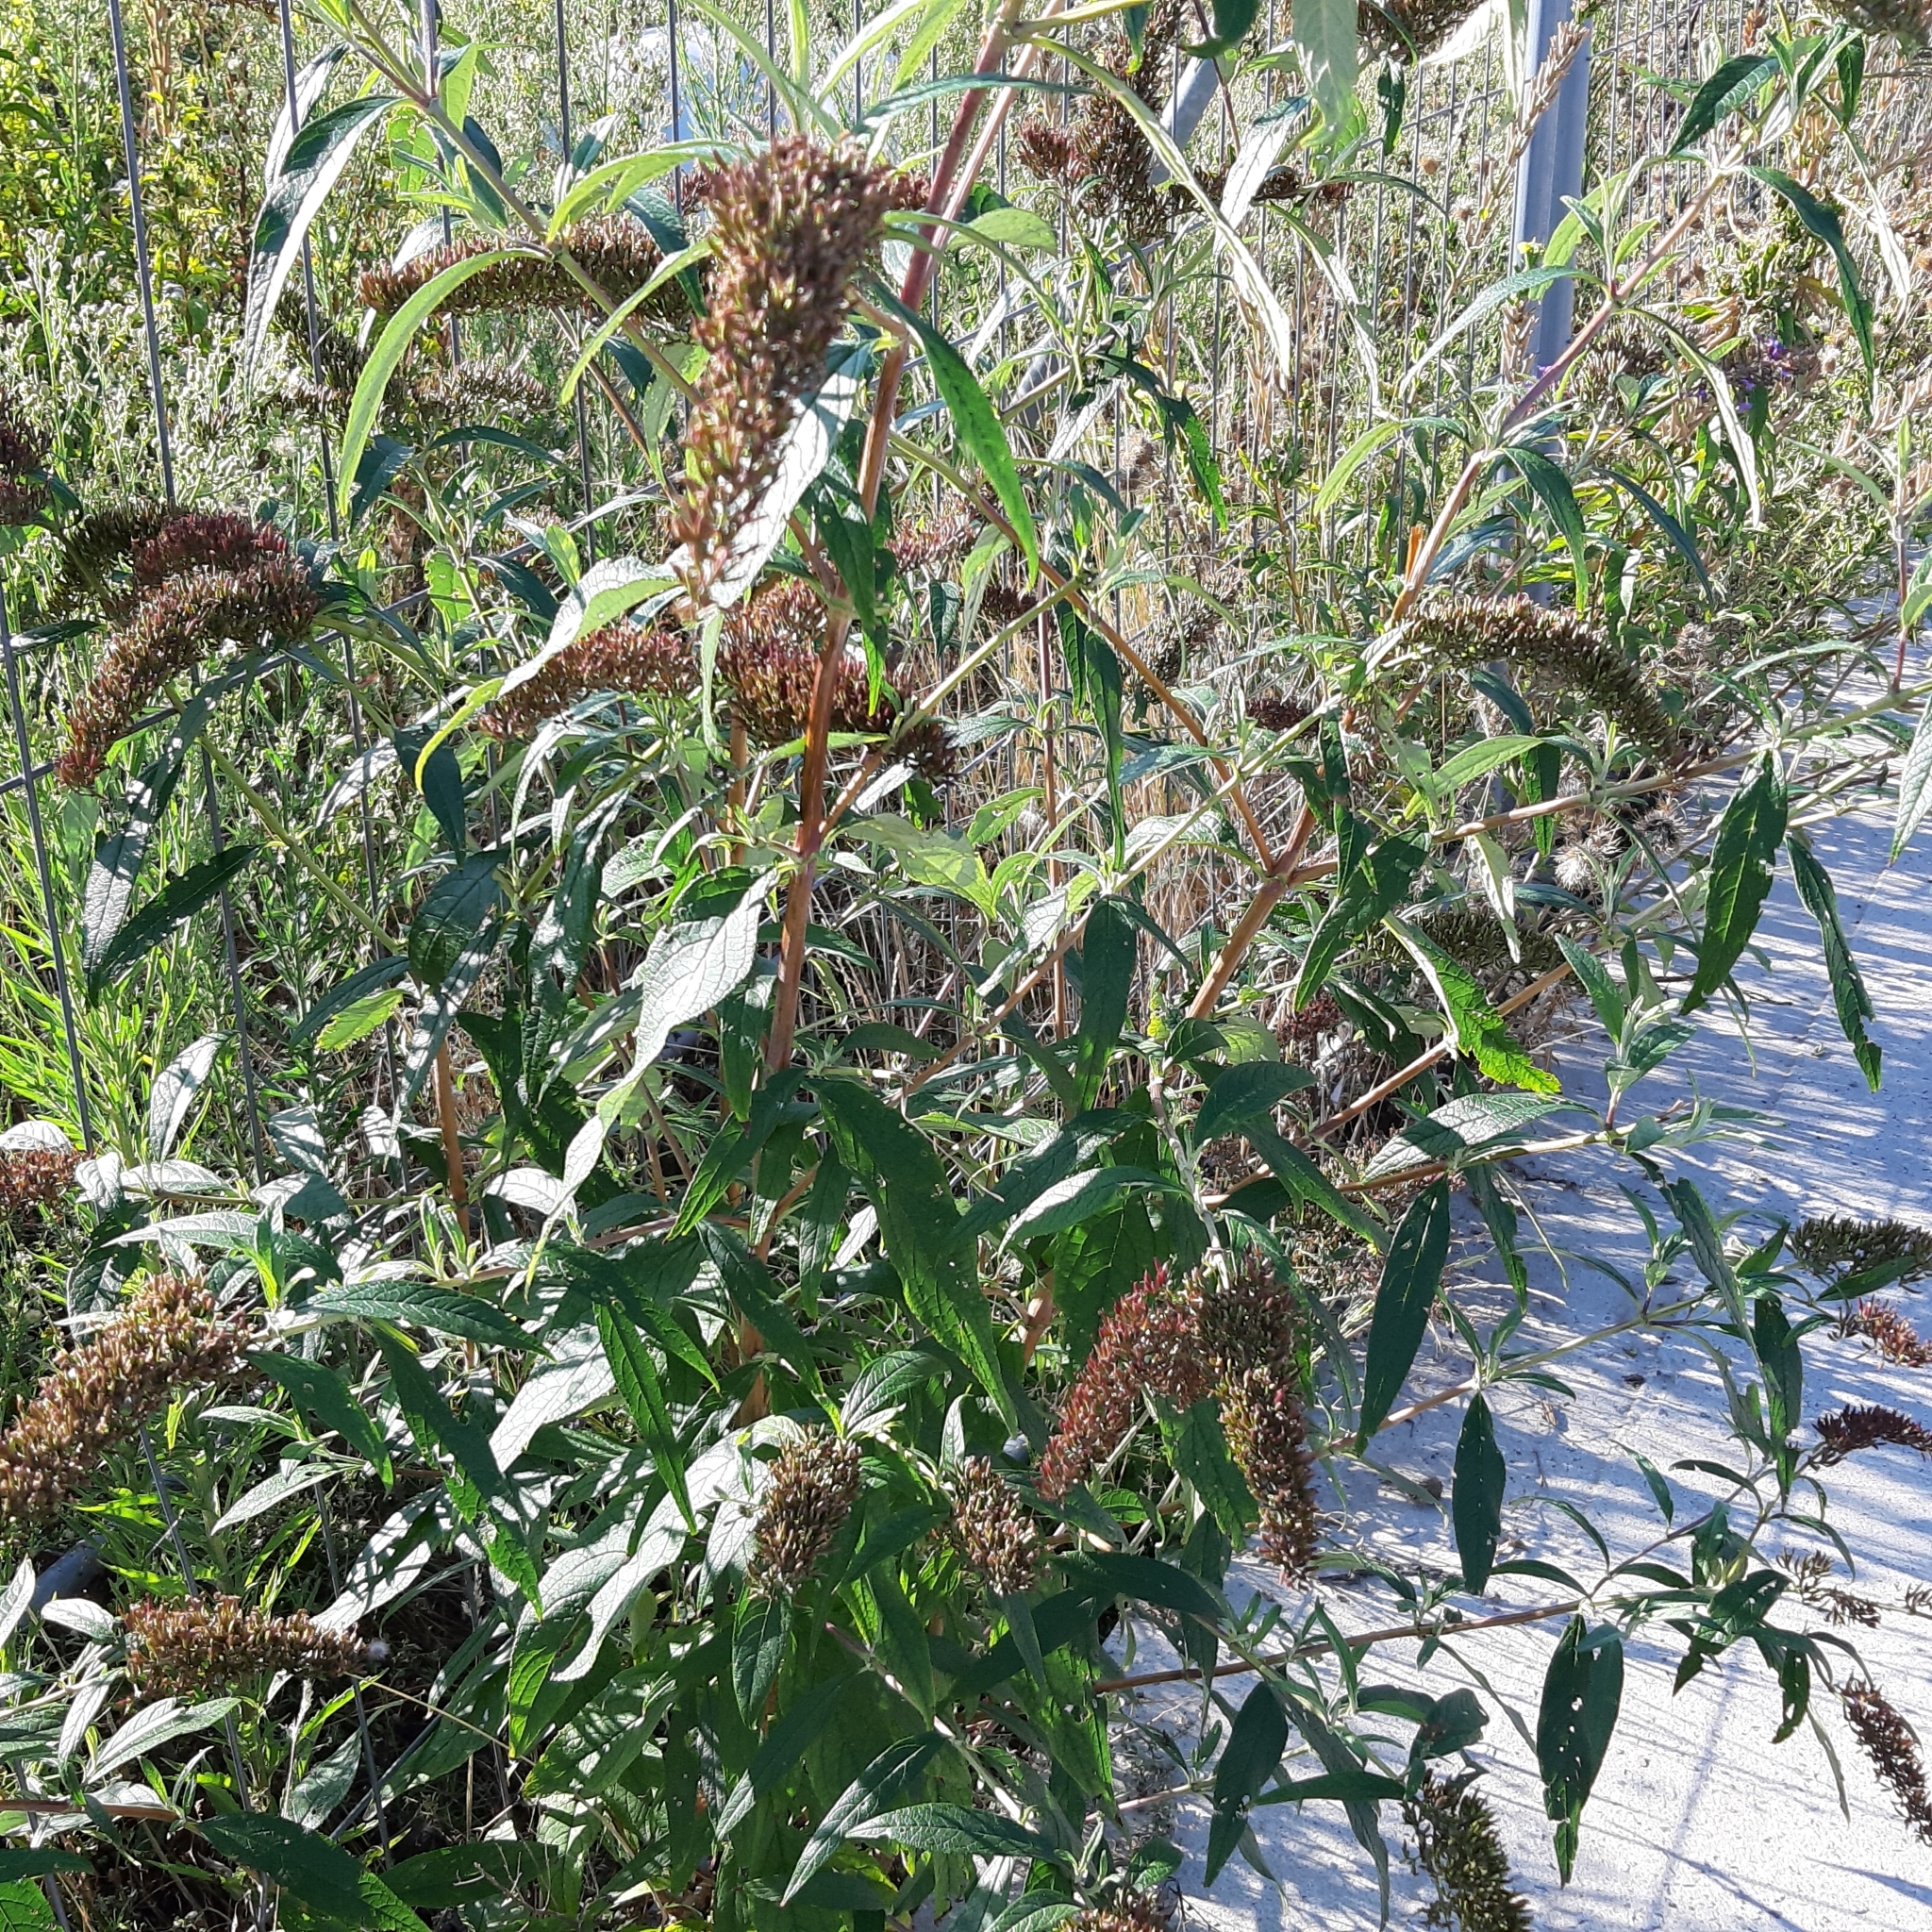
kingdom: Plantae
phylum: Tracheophyta
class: Magnoliopsida
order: Lamiales
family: Scrophulariaceae
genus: Buddleja
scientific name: Buddleja davidii
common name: Butterfly-bush
